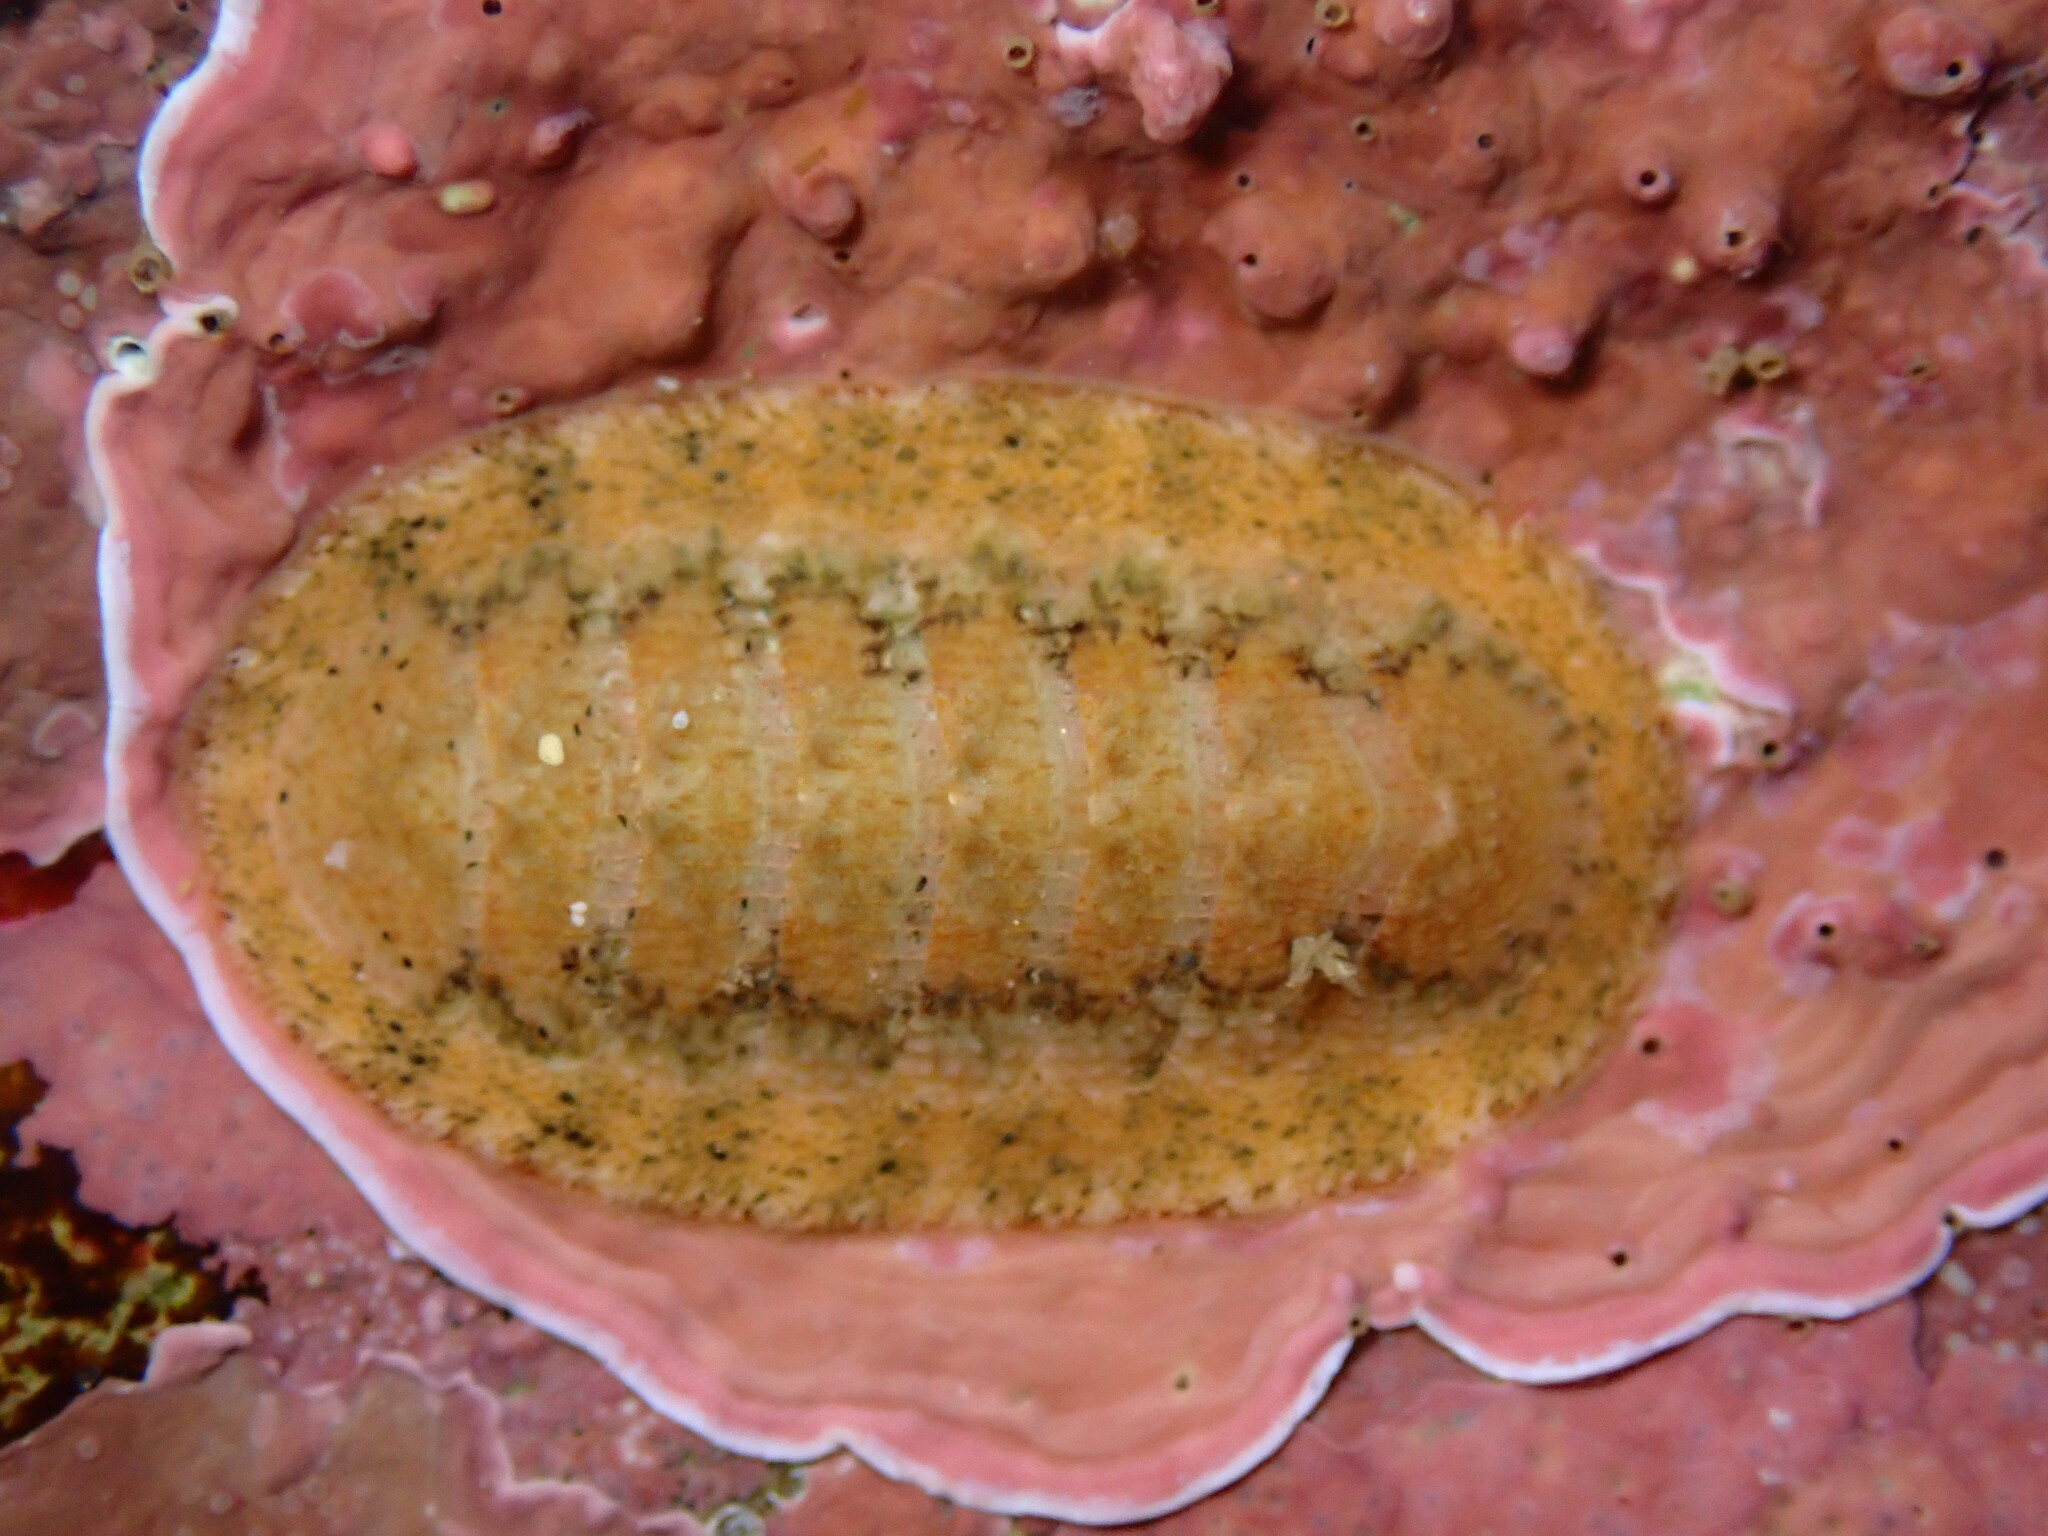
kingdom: Animalia
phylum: Mollusca
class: Polyplacophora
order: Chitonida
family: Ischnochitonidae
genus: Lepidozona
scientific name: Lepidozona pectinulata
